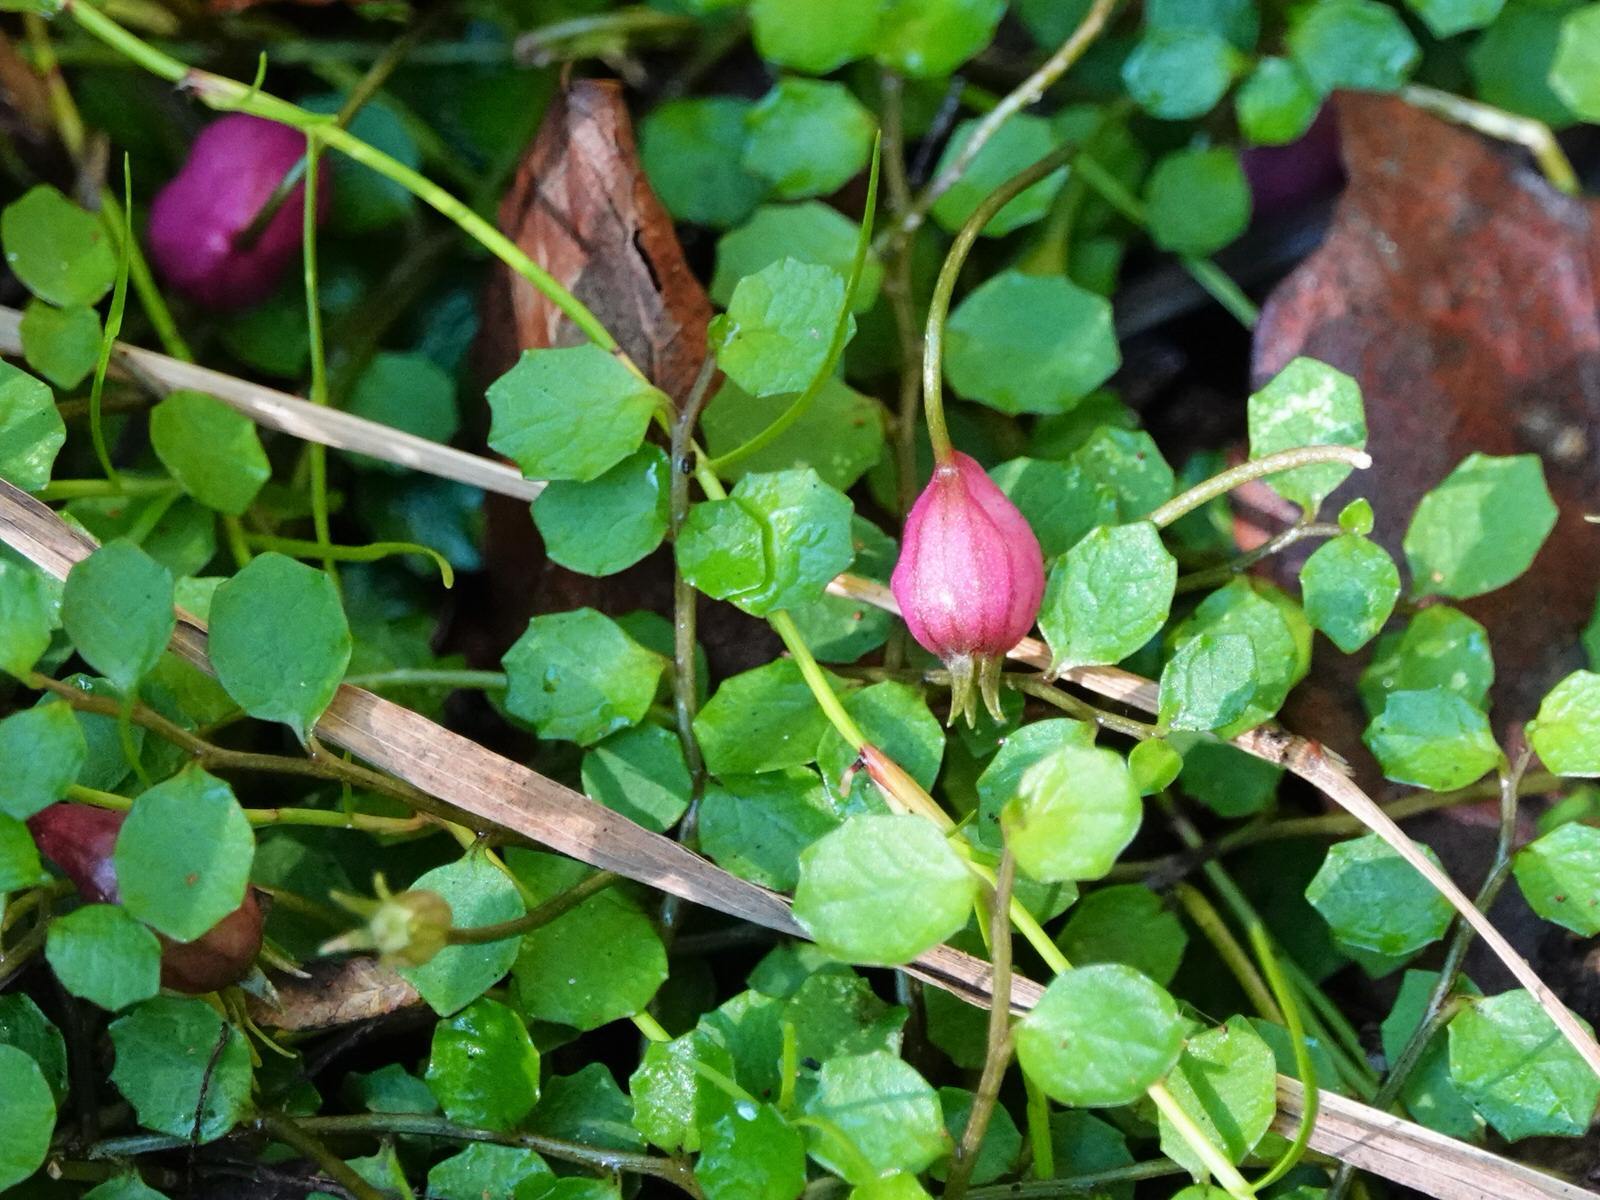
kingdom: Plantae
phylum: Tracheophyta
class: Magnoliopsida
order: Asterales
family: Campanulaceae
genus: Lobelia
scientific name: Lobelia angulata
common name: Lawn lobelia
